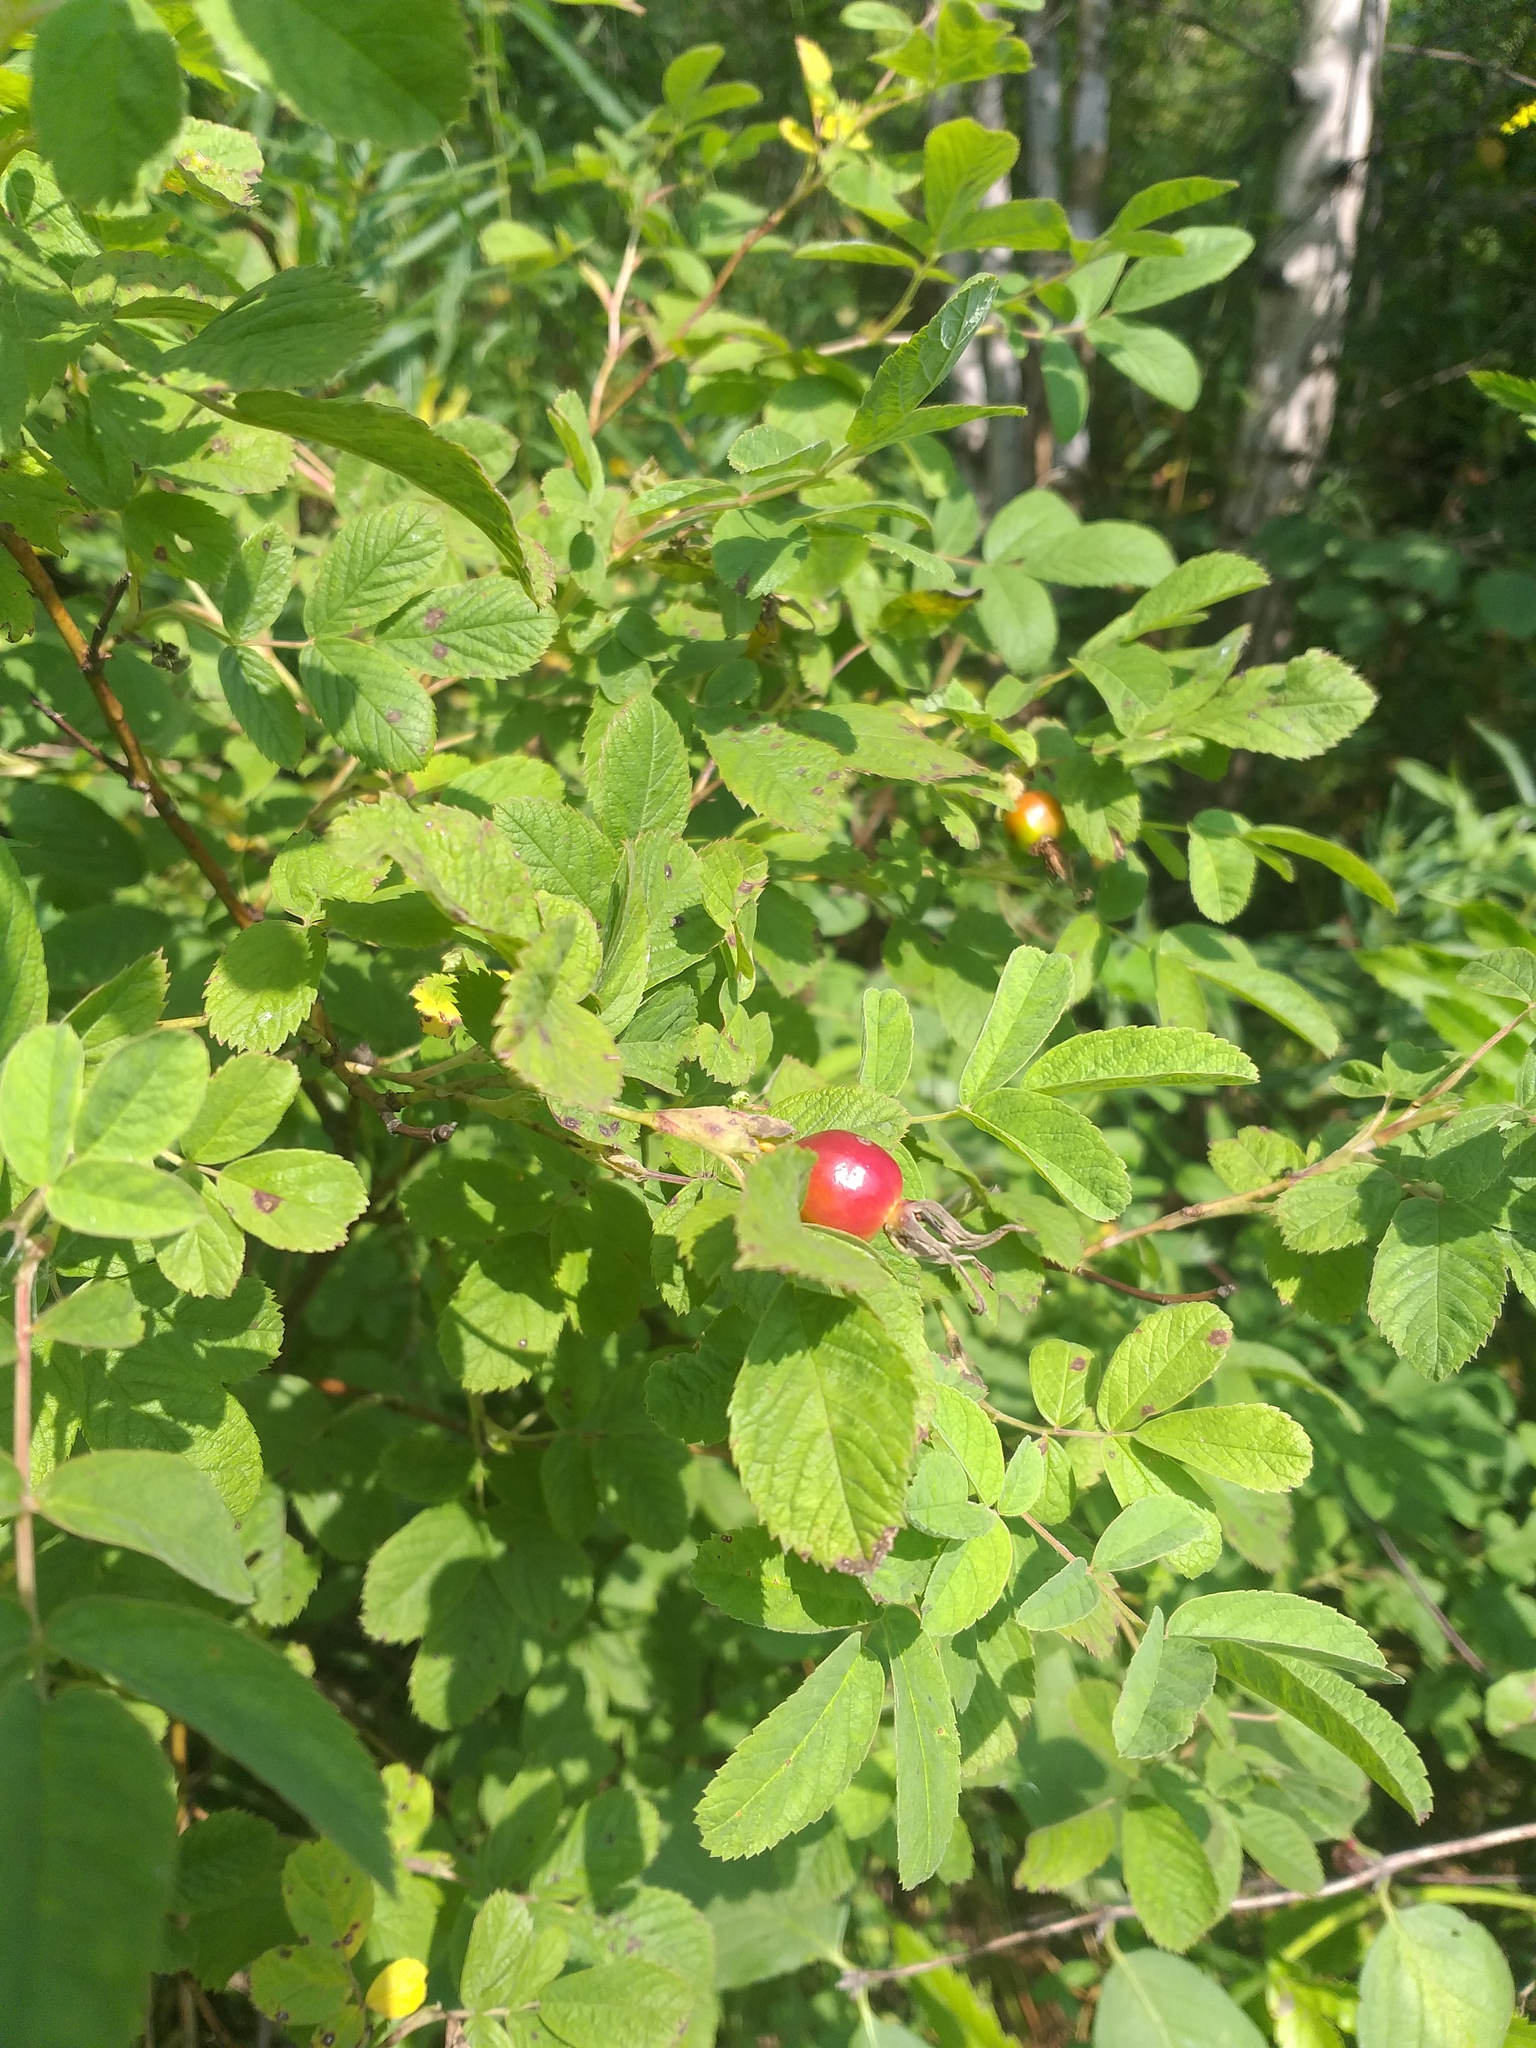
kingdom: Plantae
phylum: Tracheophyta
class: Magnoliopsida
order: Rosales
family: Rosaceae
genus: Rosa
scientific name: Rosa majalis
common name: Cinnamon rose
